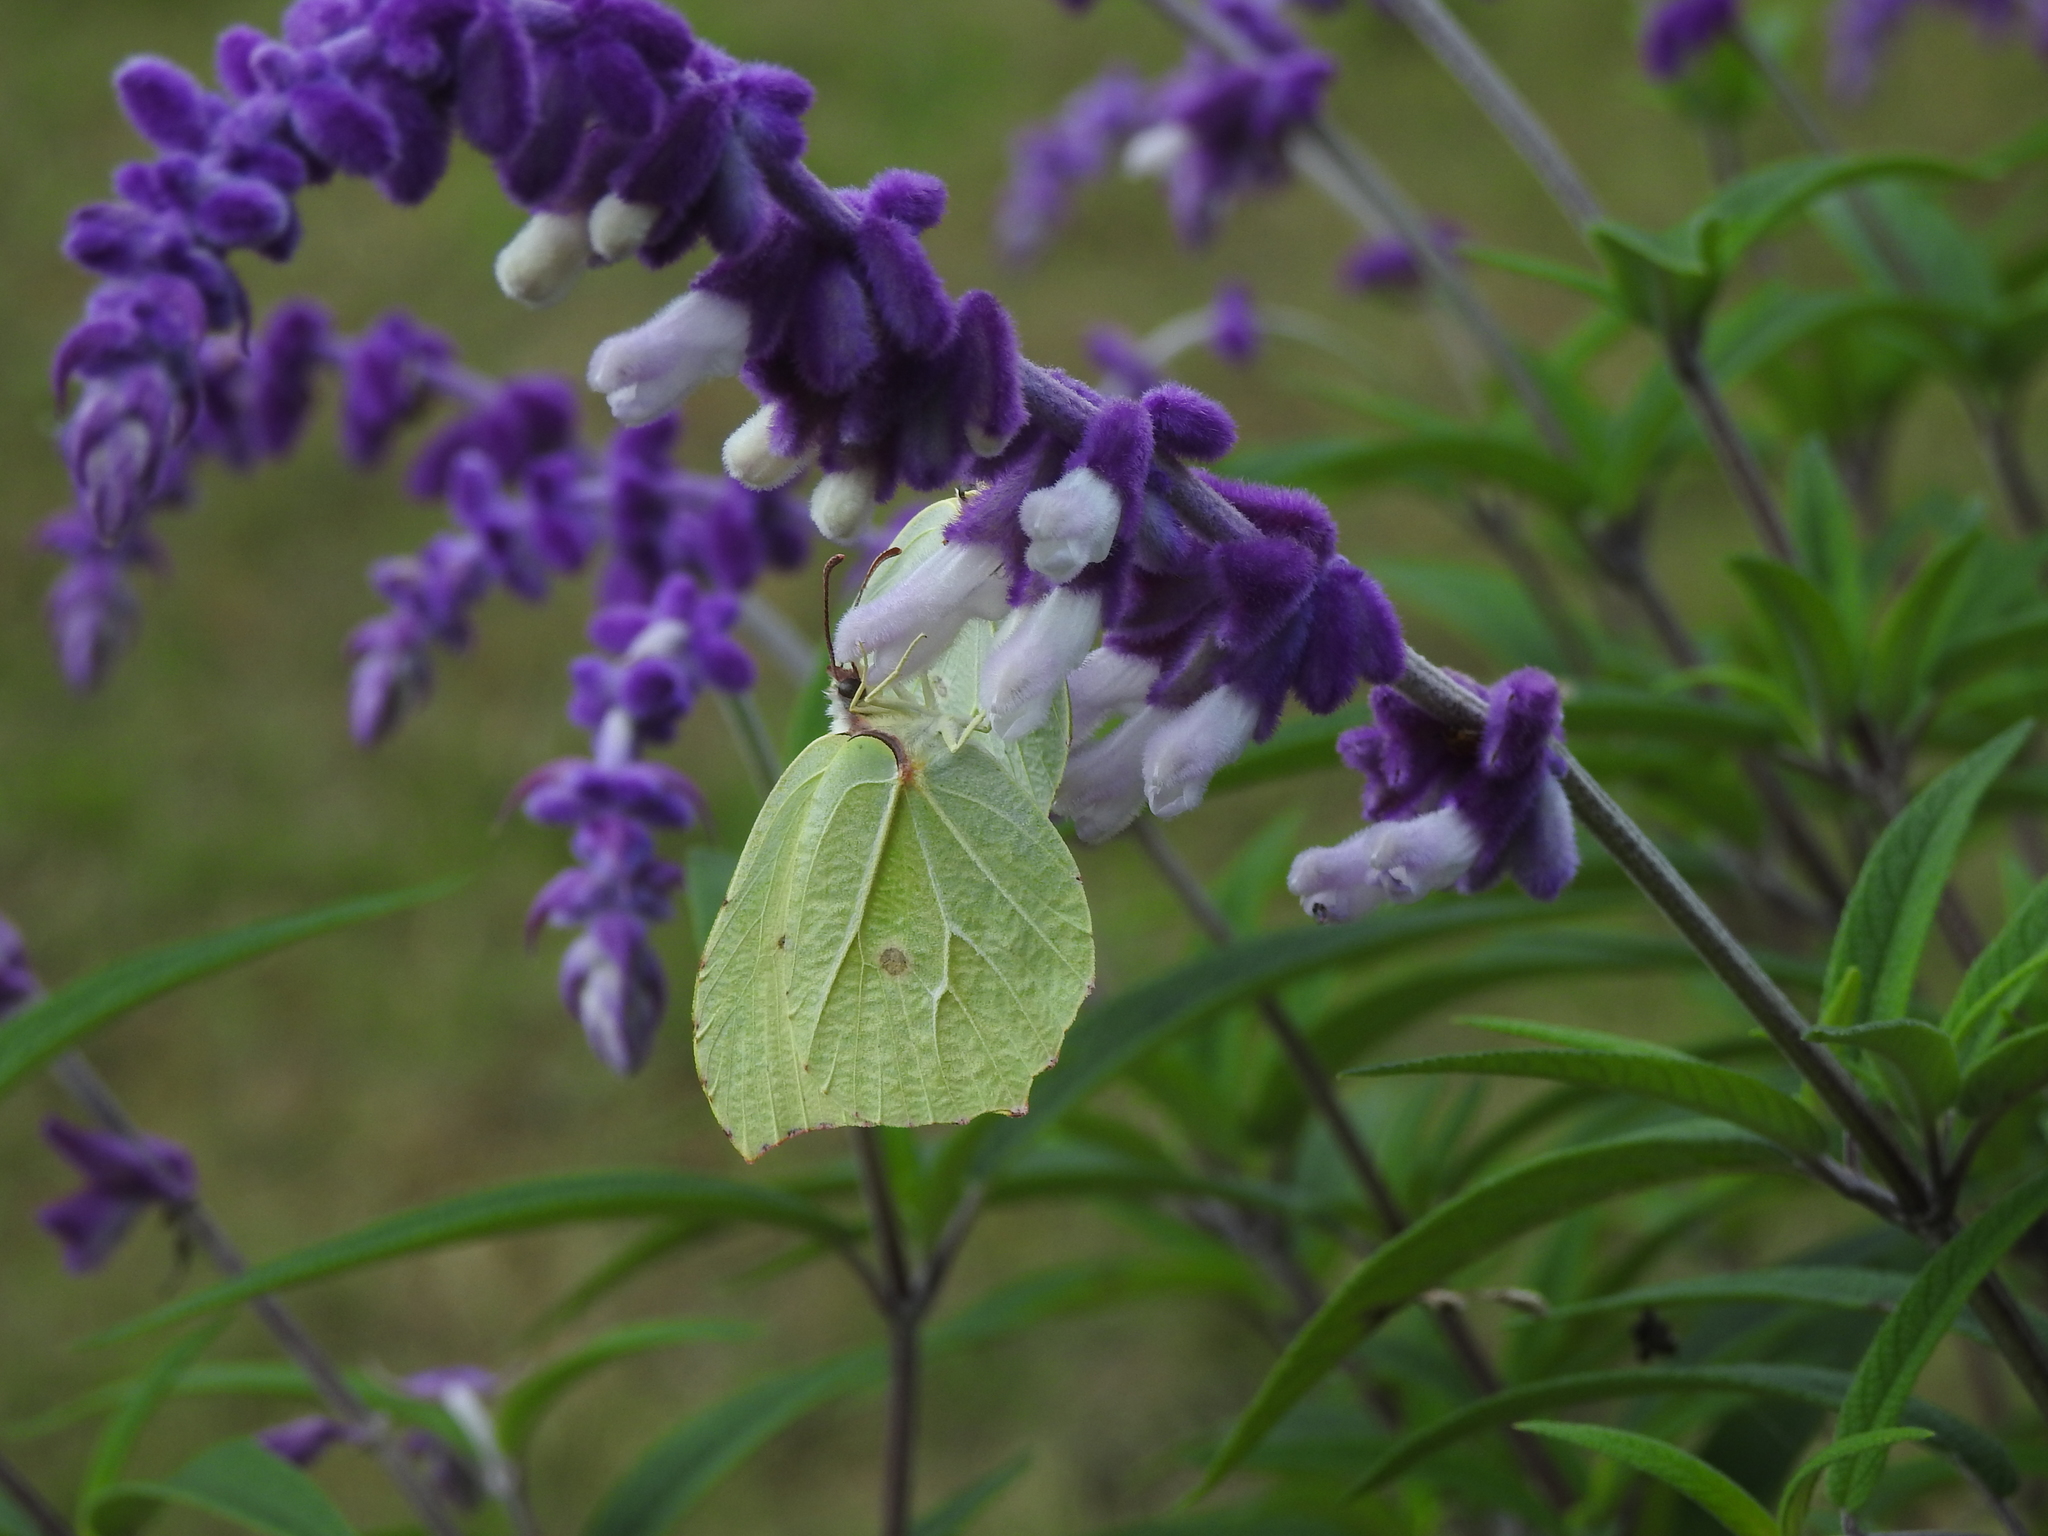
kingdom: Animalia
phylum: Arthropoda
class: Insecta
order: Lepidoptera
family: Pieridae
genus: Gonepteryx
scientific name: Gonepteryx
